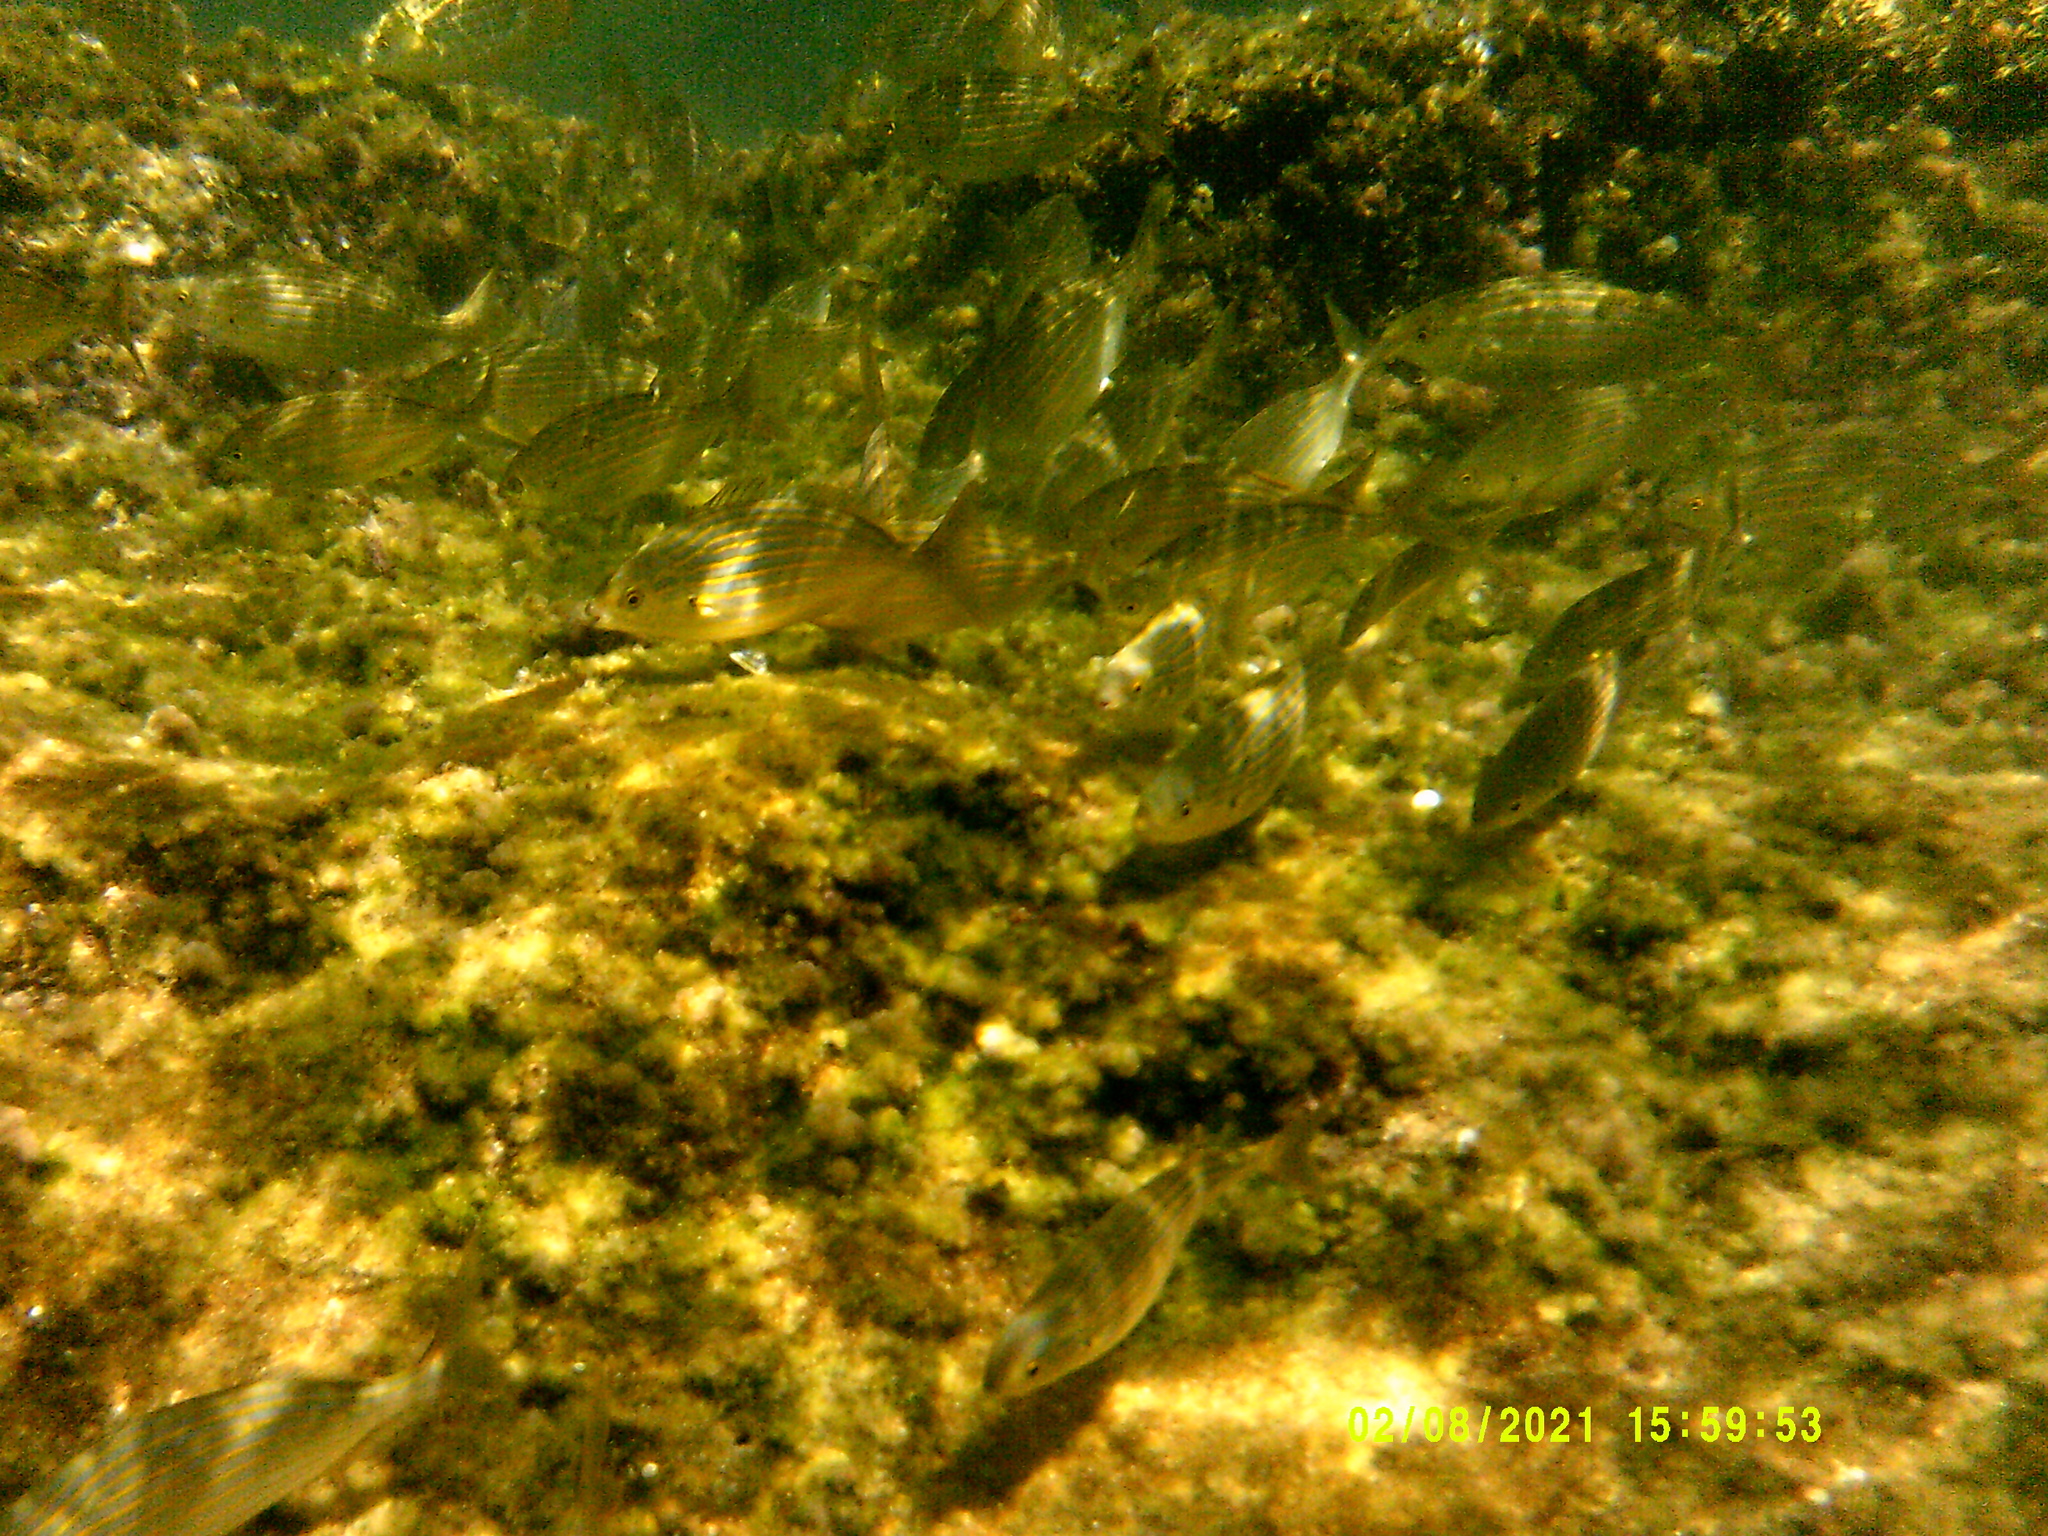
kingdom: Animalia
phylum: Chordata
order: Perciformes
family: Sparidae
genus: Sarpa
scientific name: Sarpa salpa
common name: Salema
